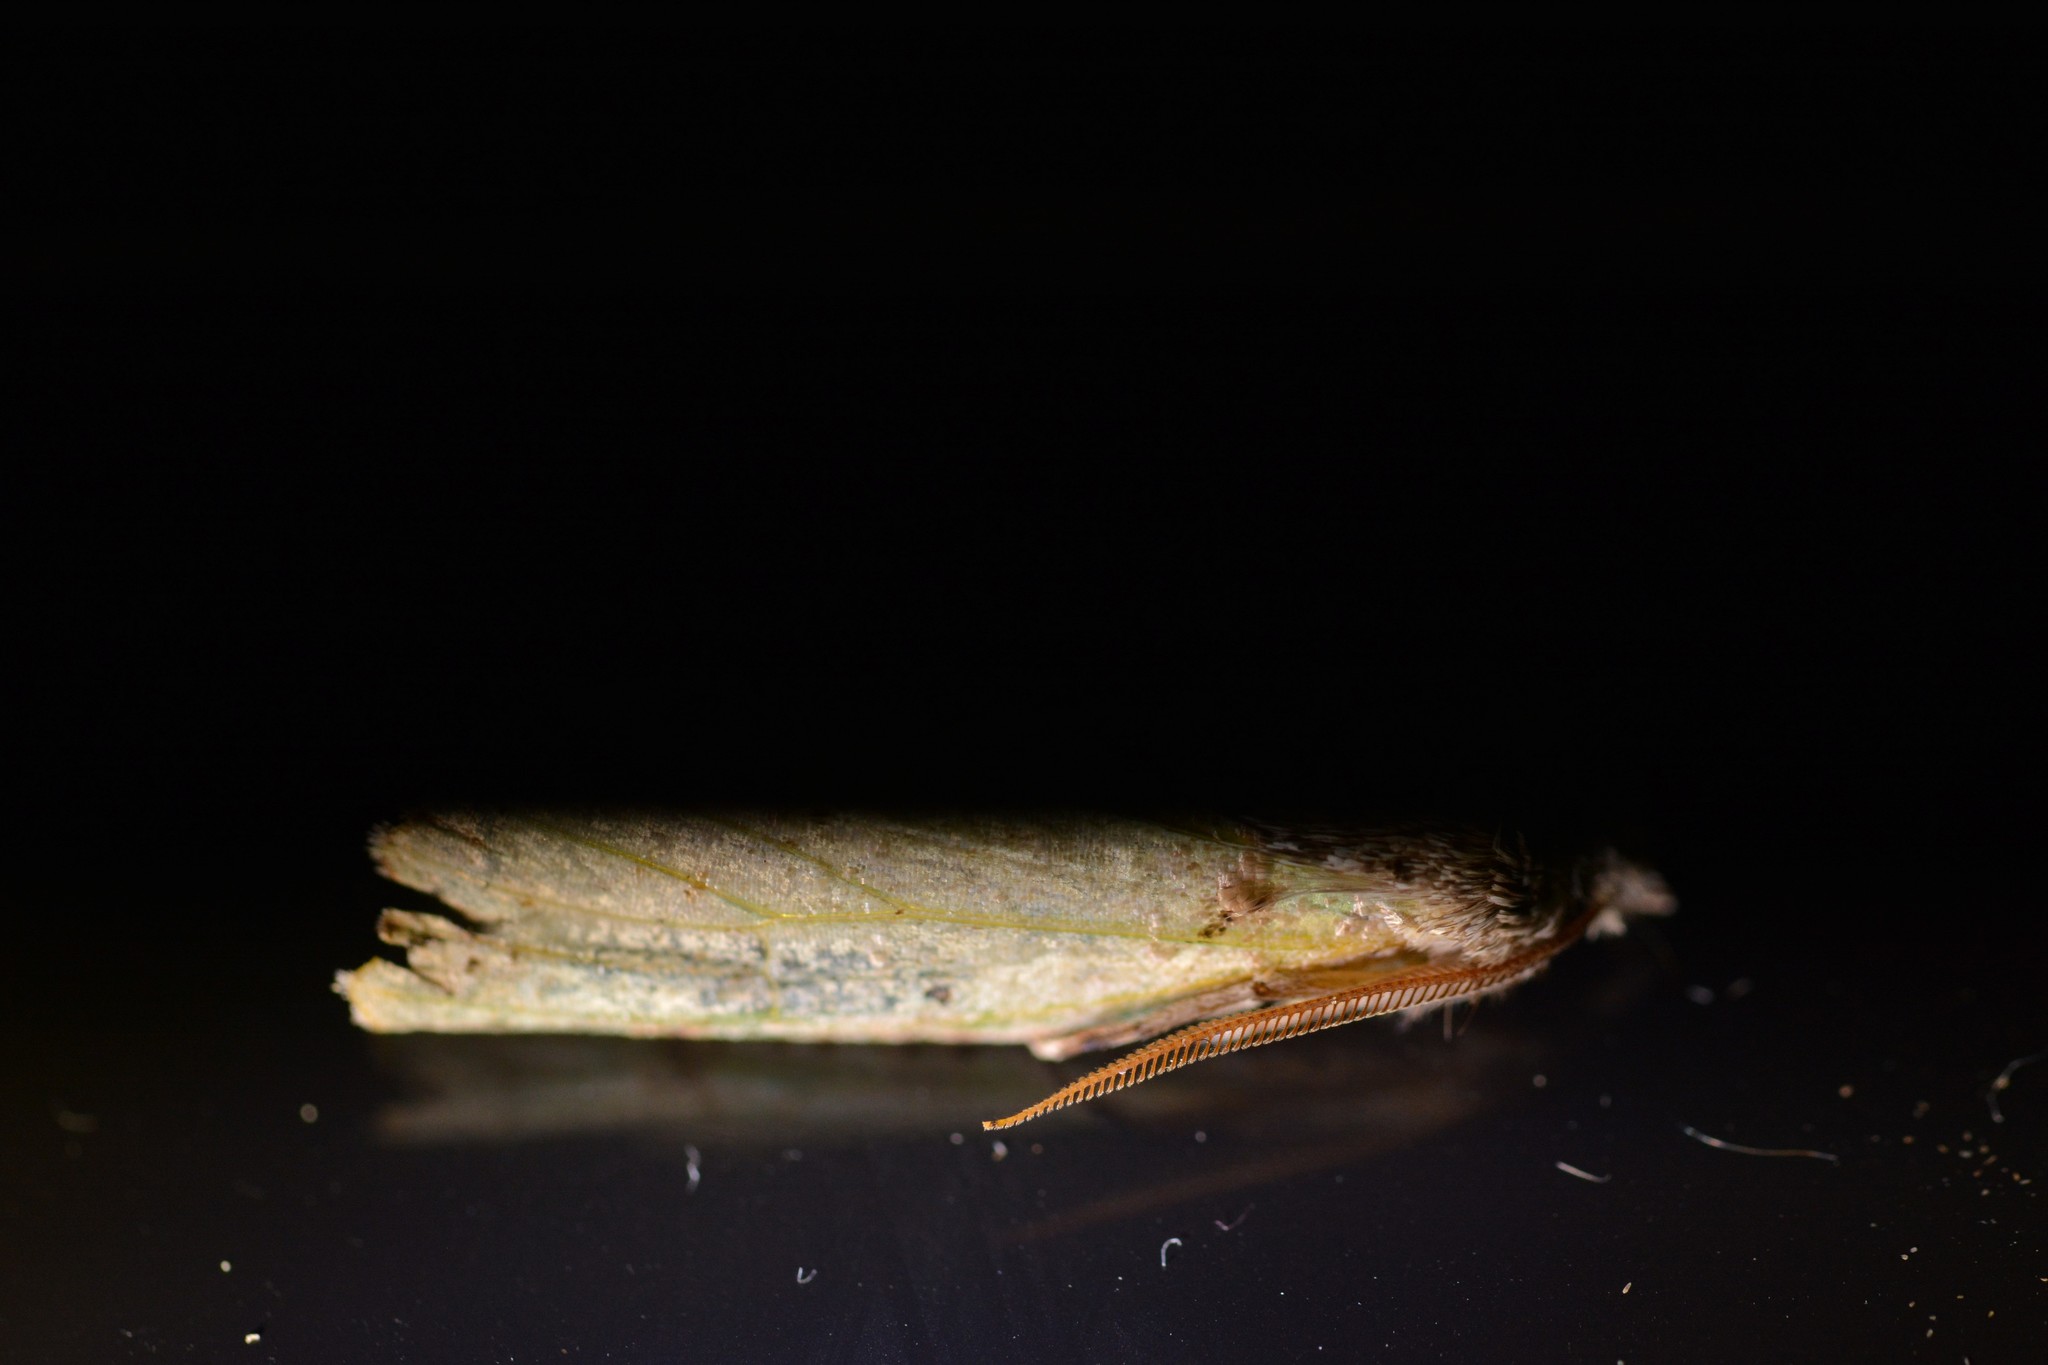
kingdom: Animalia
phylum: Arthropoda
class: Insecta
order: Lepidoptera
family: Geometridae
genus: Declana
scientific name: Declana floccosa
